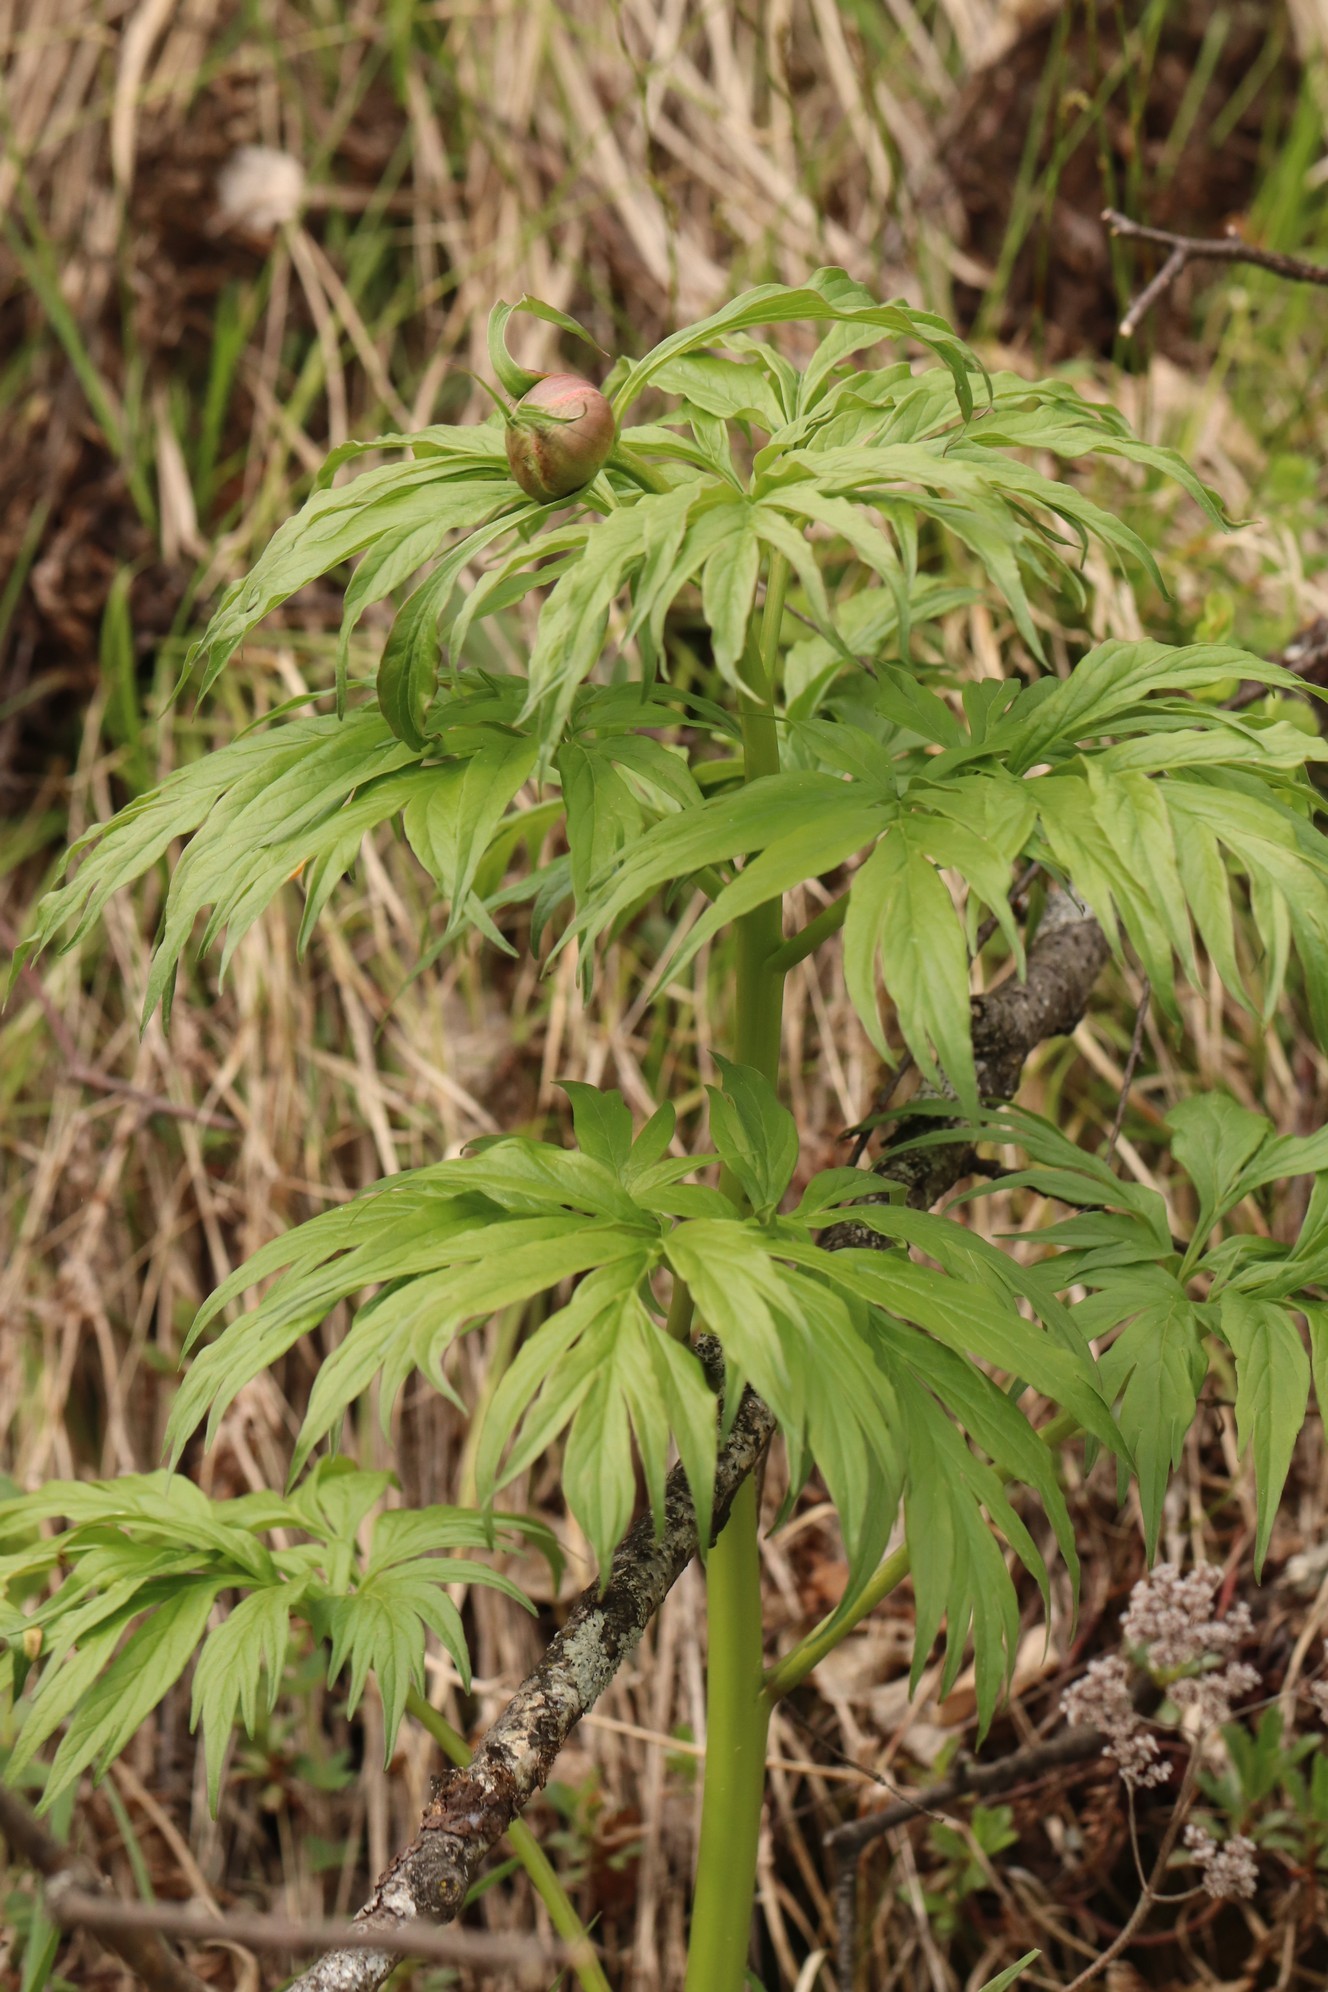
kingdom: Plantae
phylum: Tracheophyta
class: Magnoliopsida
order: Saxifragales
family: Paeoniaceae
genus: Paeonia
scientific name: Paeonia anomala
